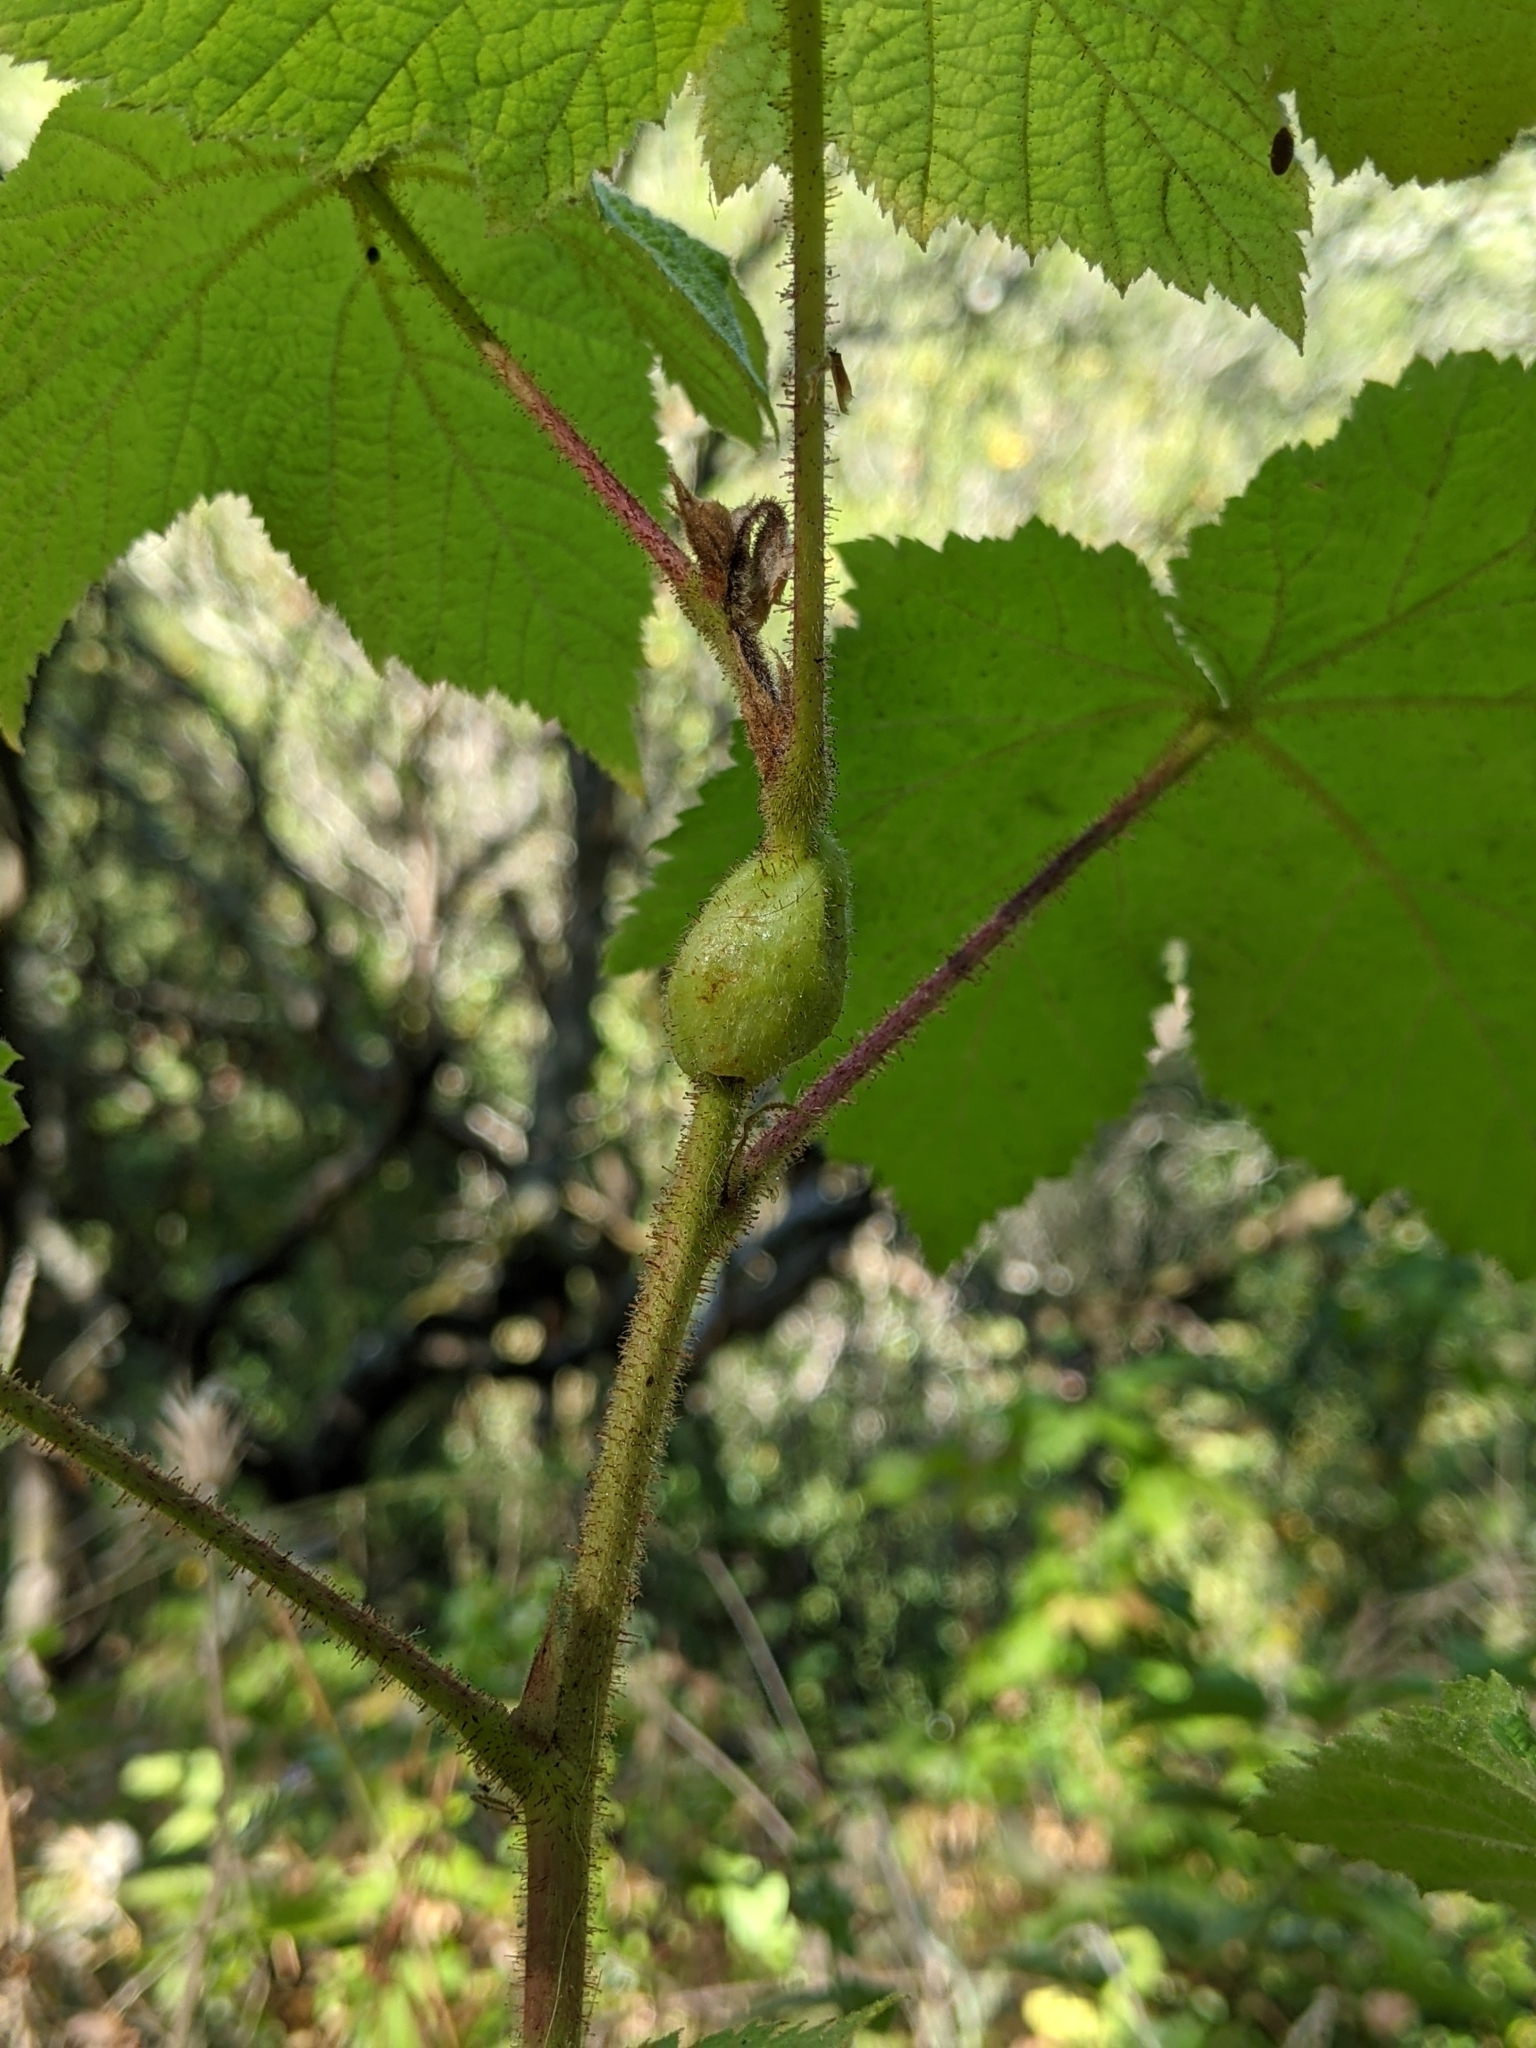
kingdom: Animalia
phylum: Arthropoda
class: Insecta
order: Hymenoptera
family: Cynipidae
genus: Diastrophus
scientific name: Diastrophus
